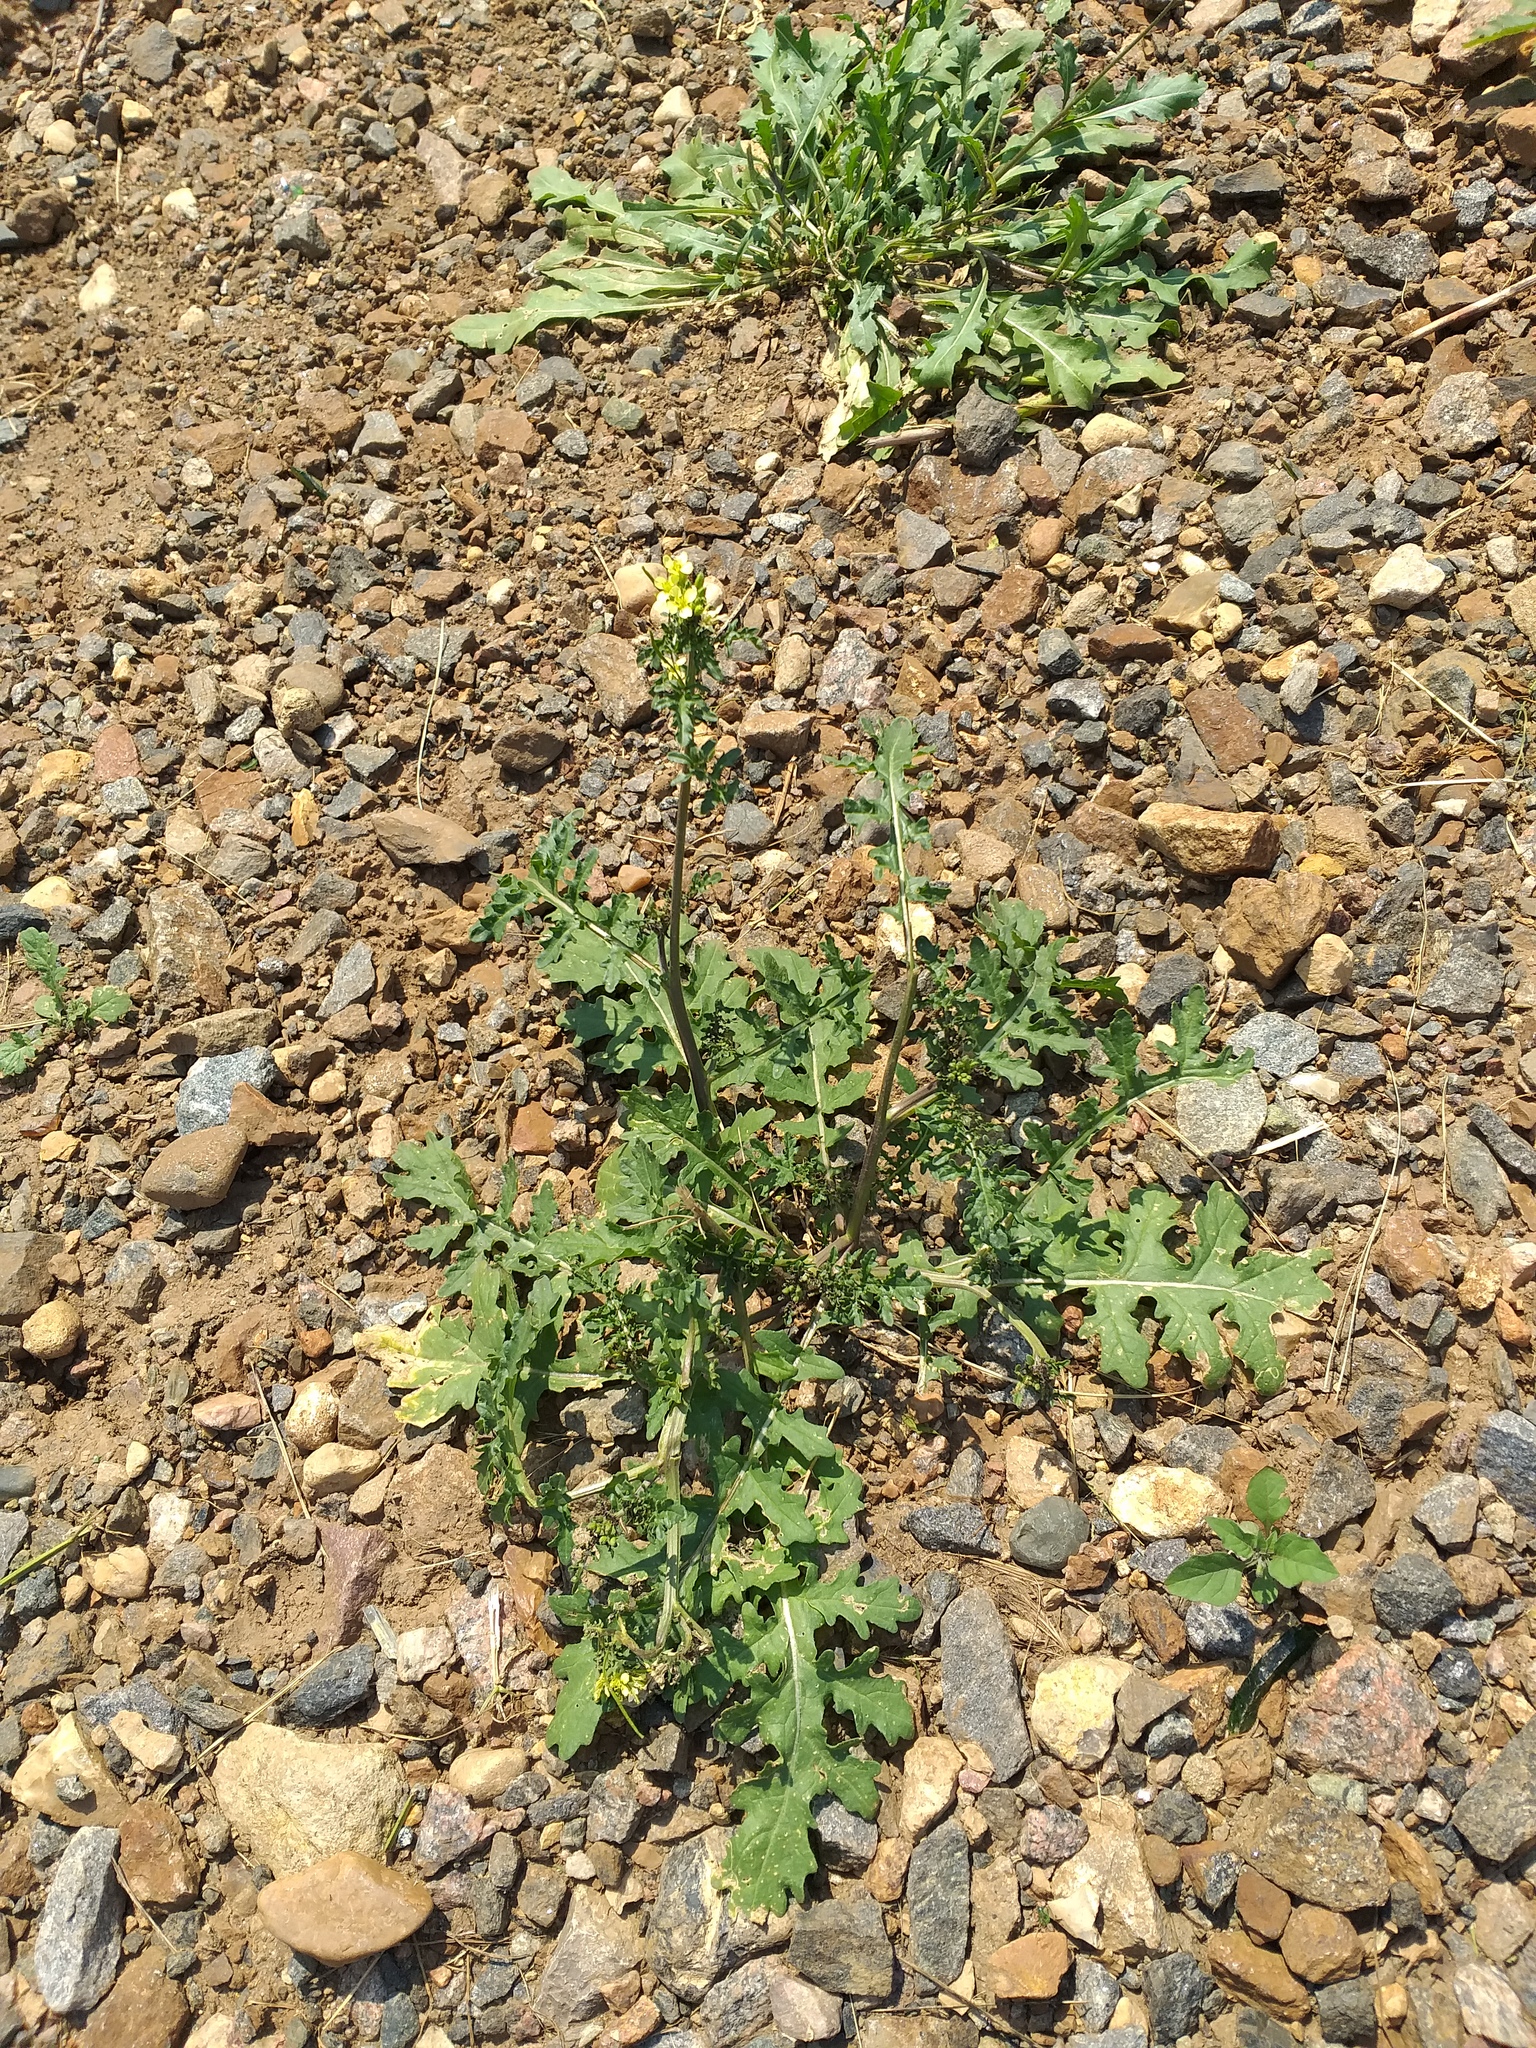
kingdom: Plantae
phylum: Tracheophyta
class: Magnoliopsida
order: Brassicales
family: Brassicaceae
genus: Erucastrum
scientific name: Erucastrum gallicum
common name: Hairy rocket
